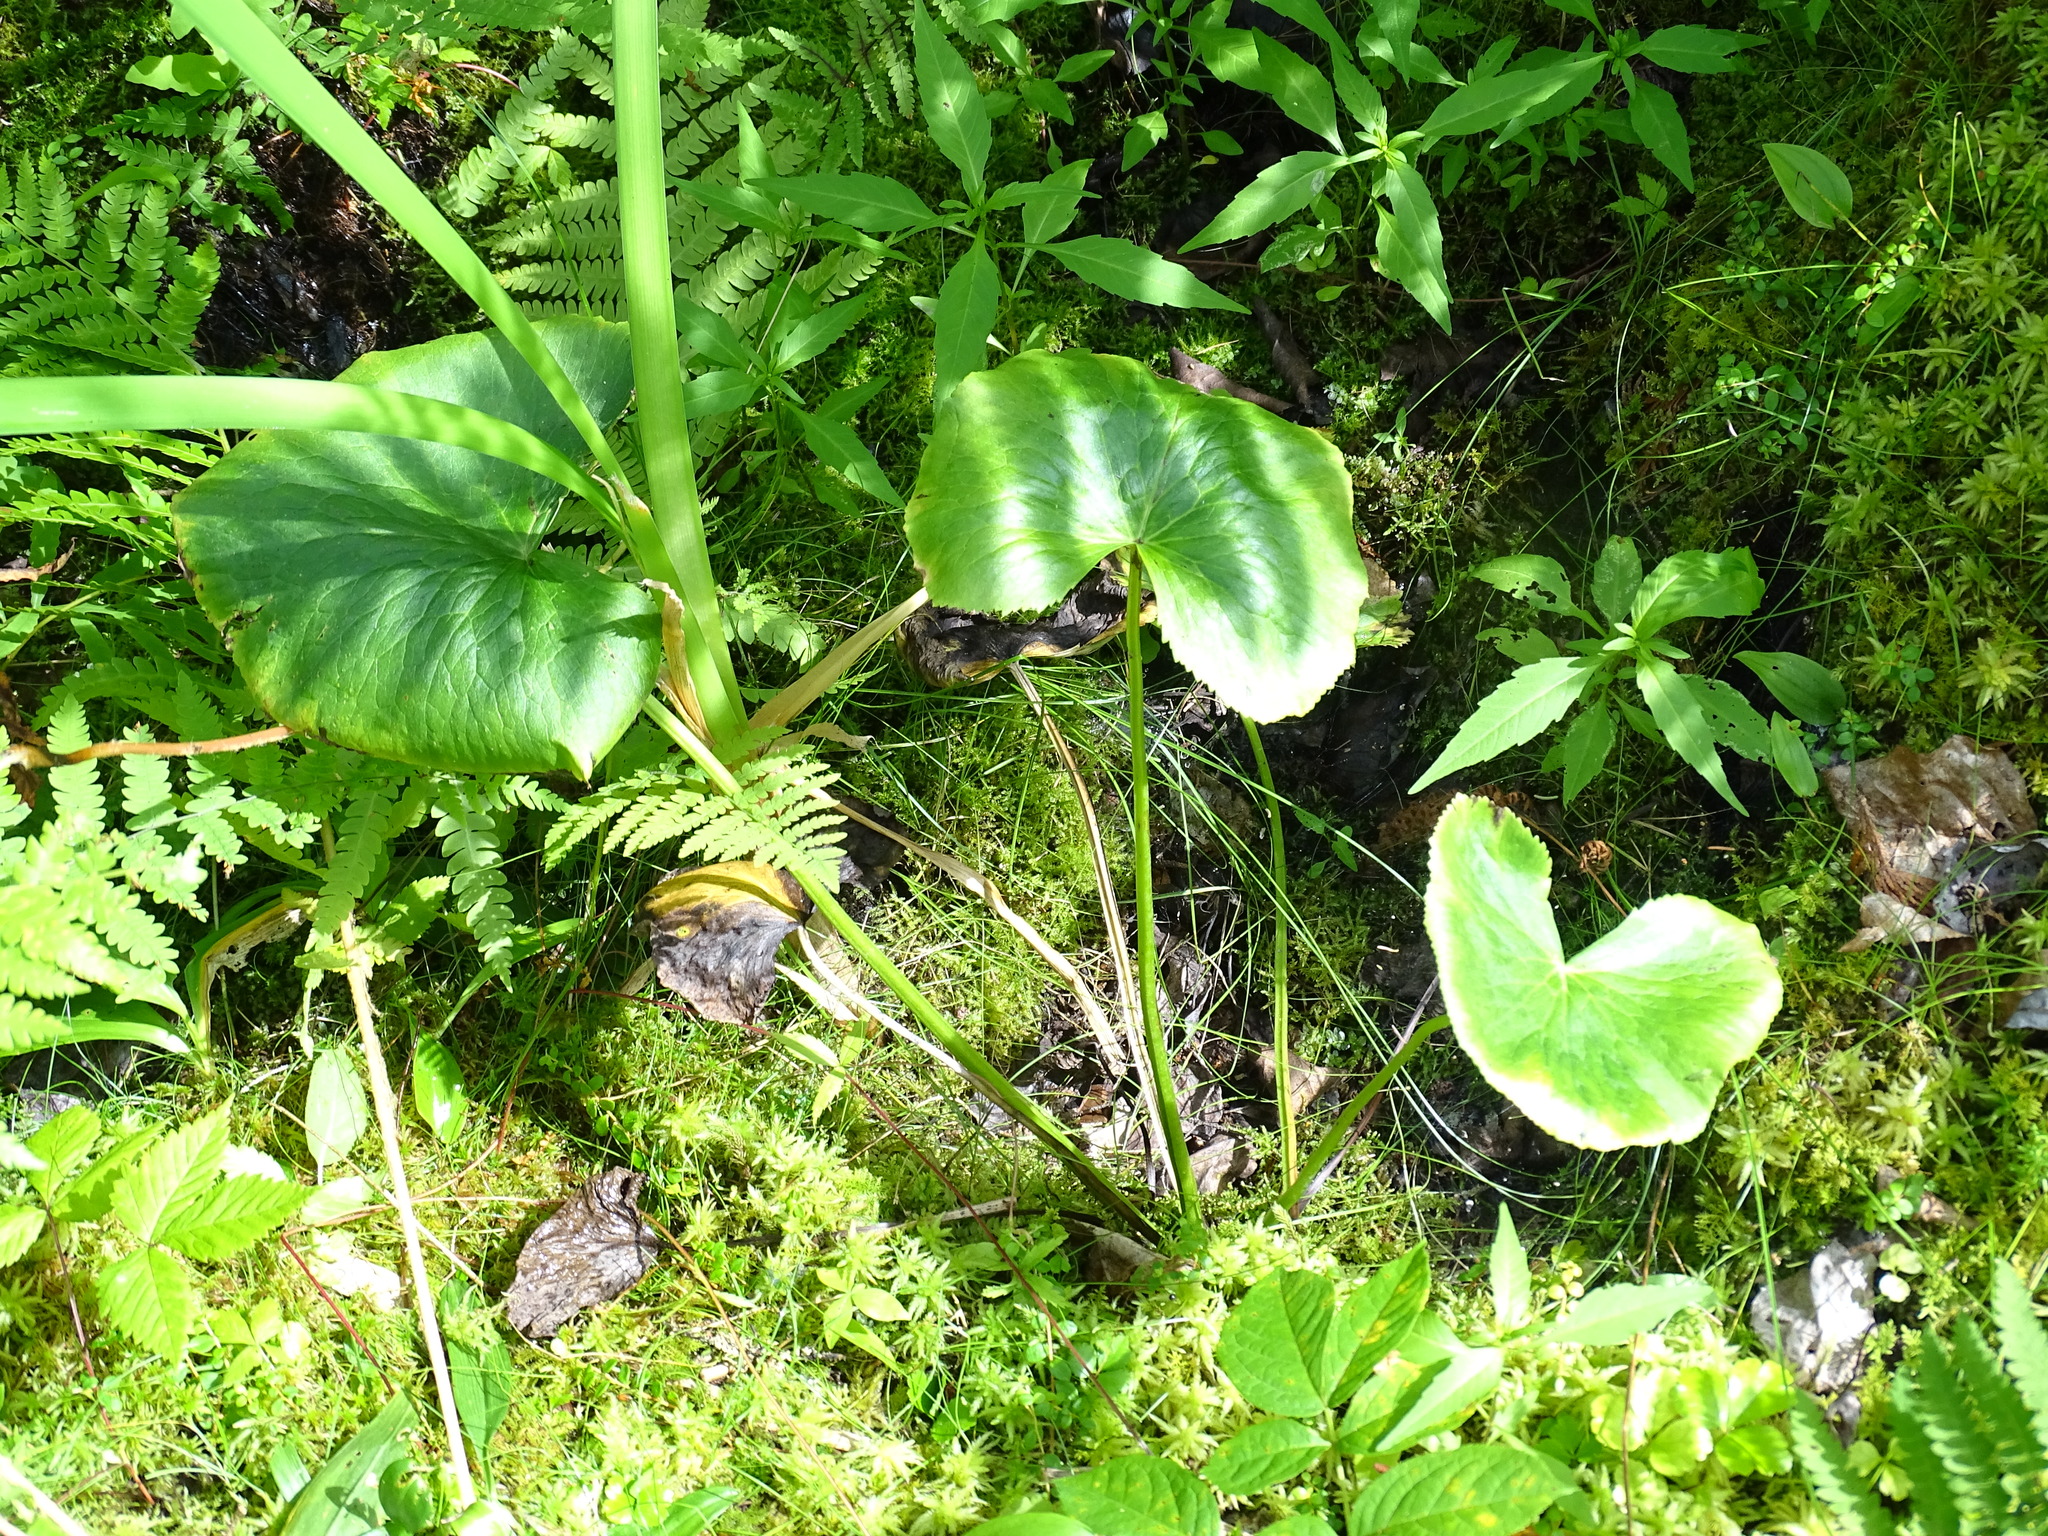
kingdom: Plantae
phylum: Tracheophyta
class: Magnoliopsida
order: Ranunculales
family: Ranunculaceae
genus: Caltha
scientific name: Caltha palustris
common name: Marsh marigold
